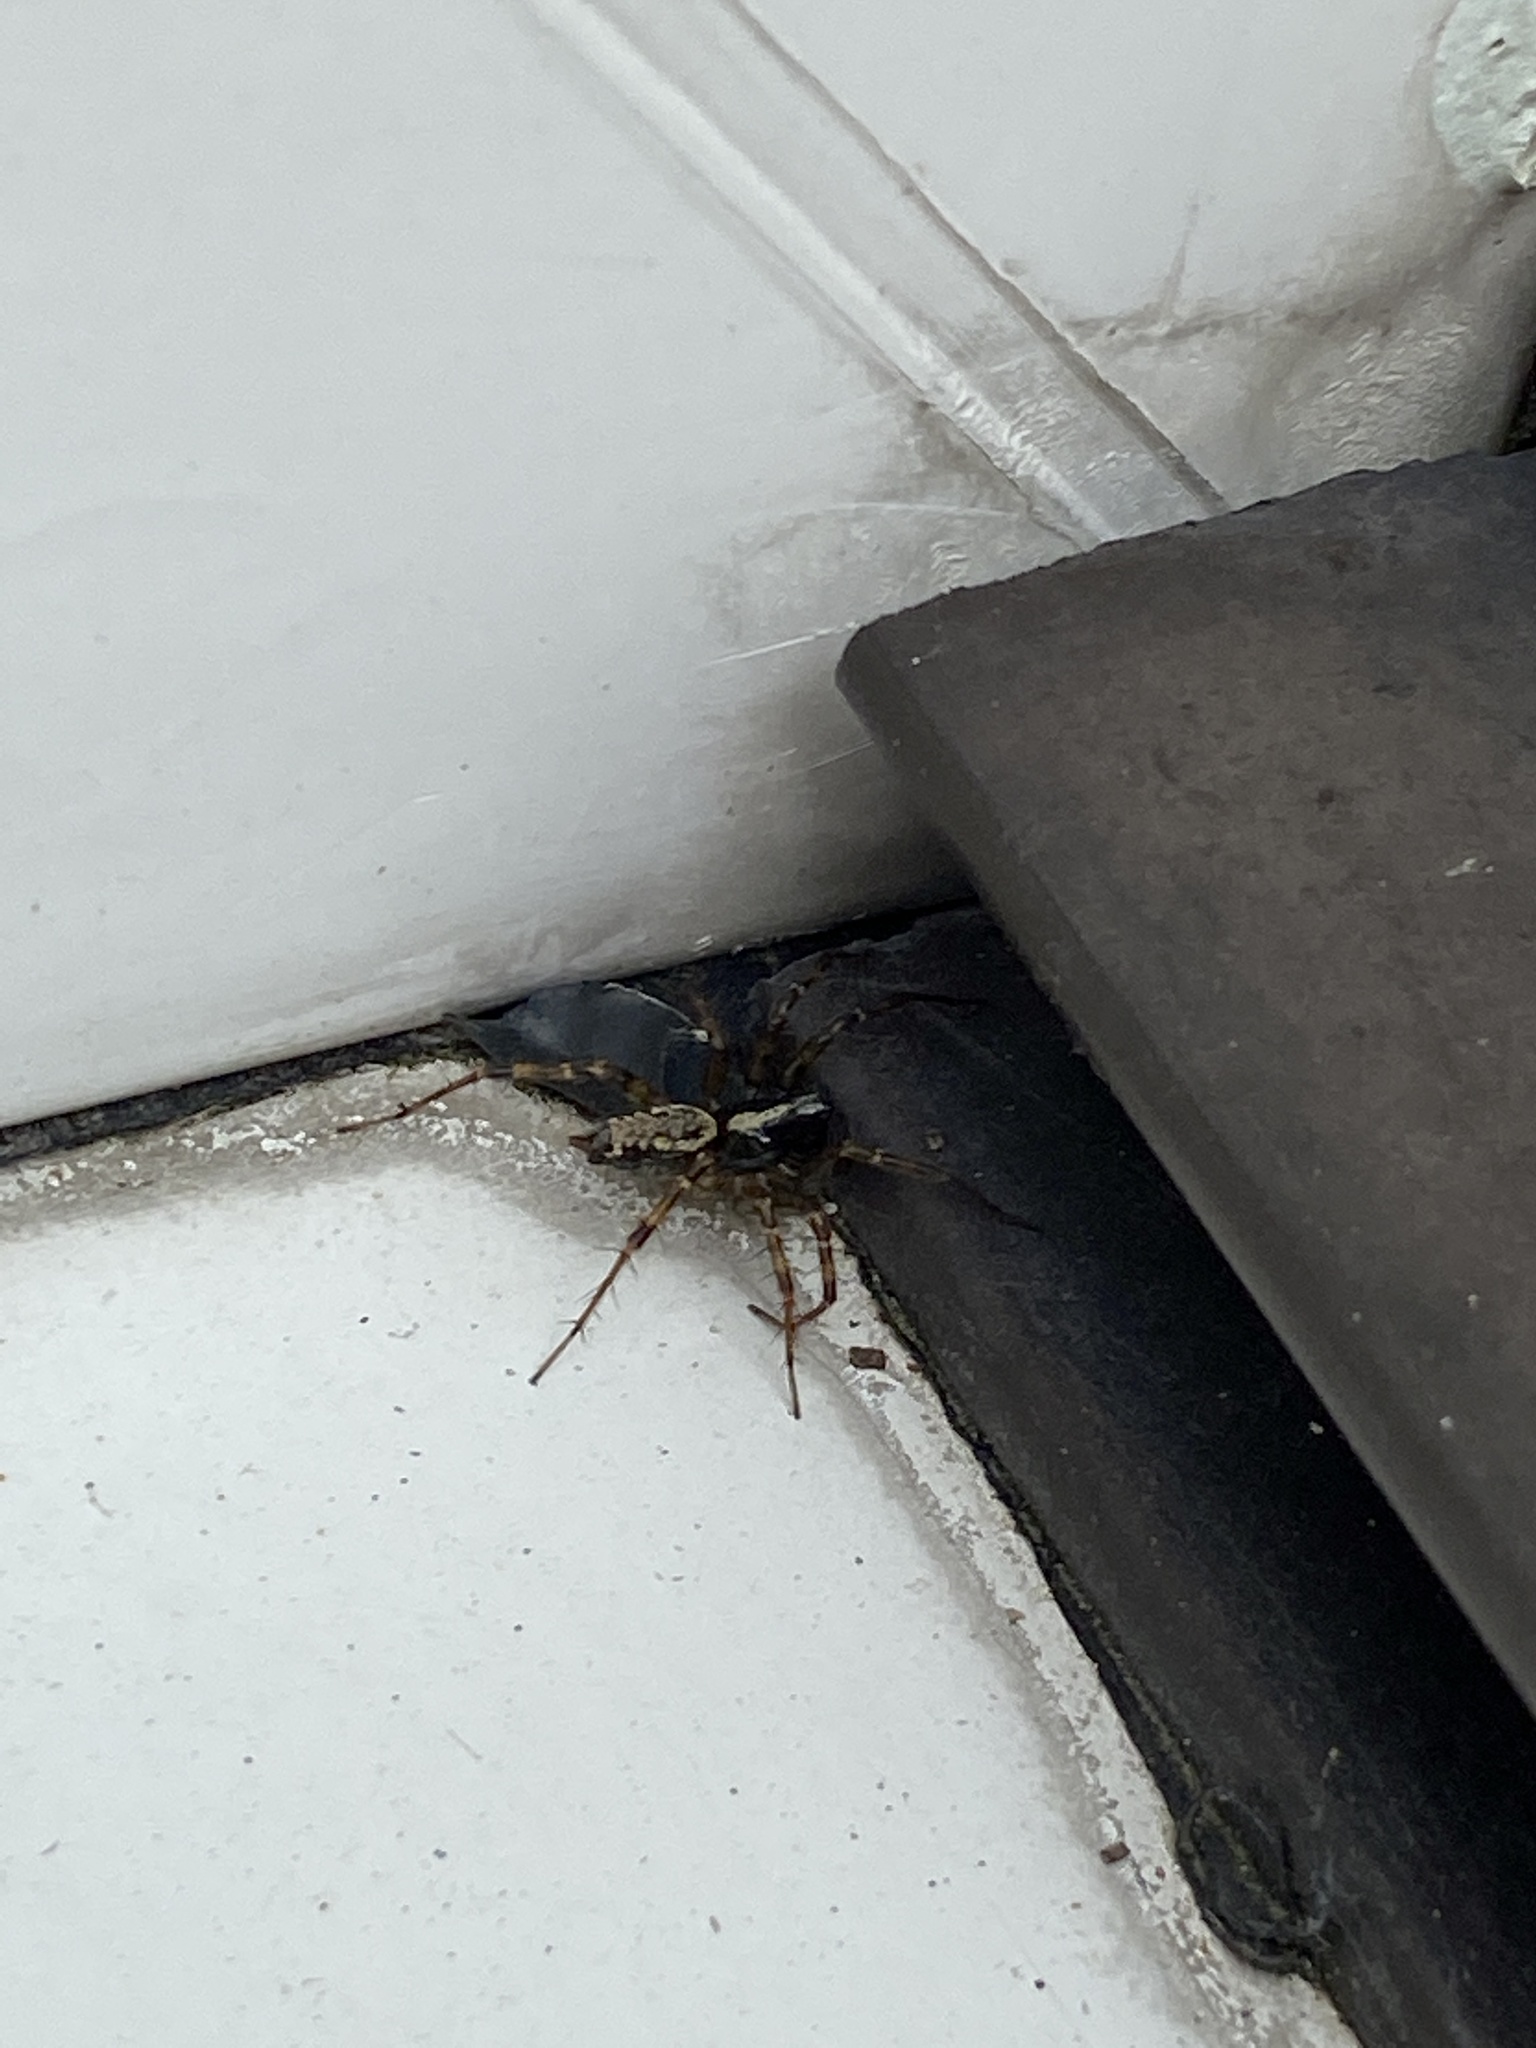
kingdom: Animalia
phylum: Arthropoda
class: Arachnida
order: Araneae
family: Agelenidae
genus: Textrix
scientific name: Textrix denticulata
